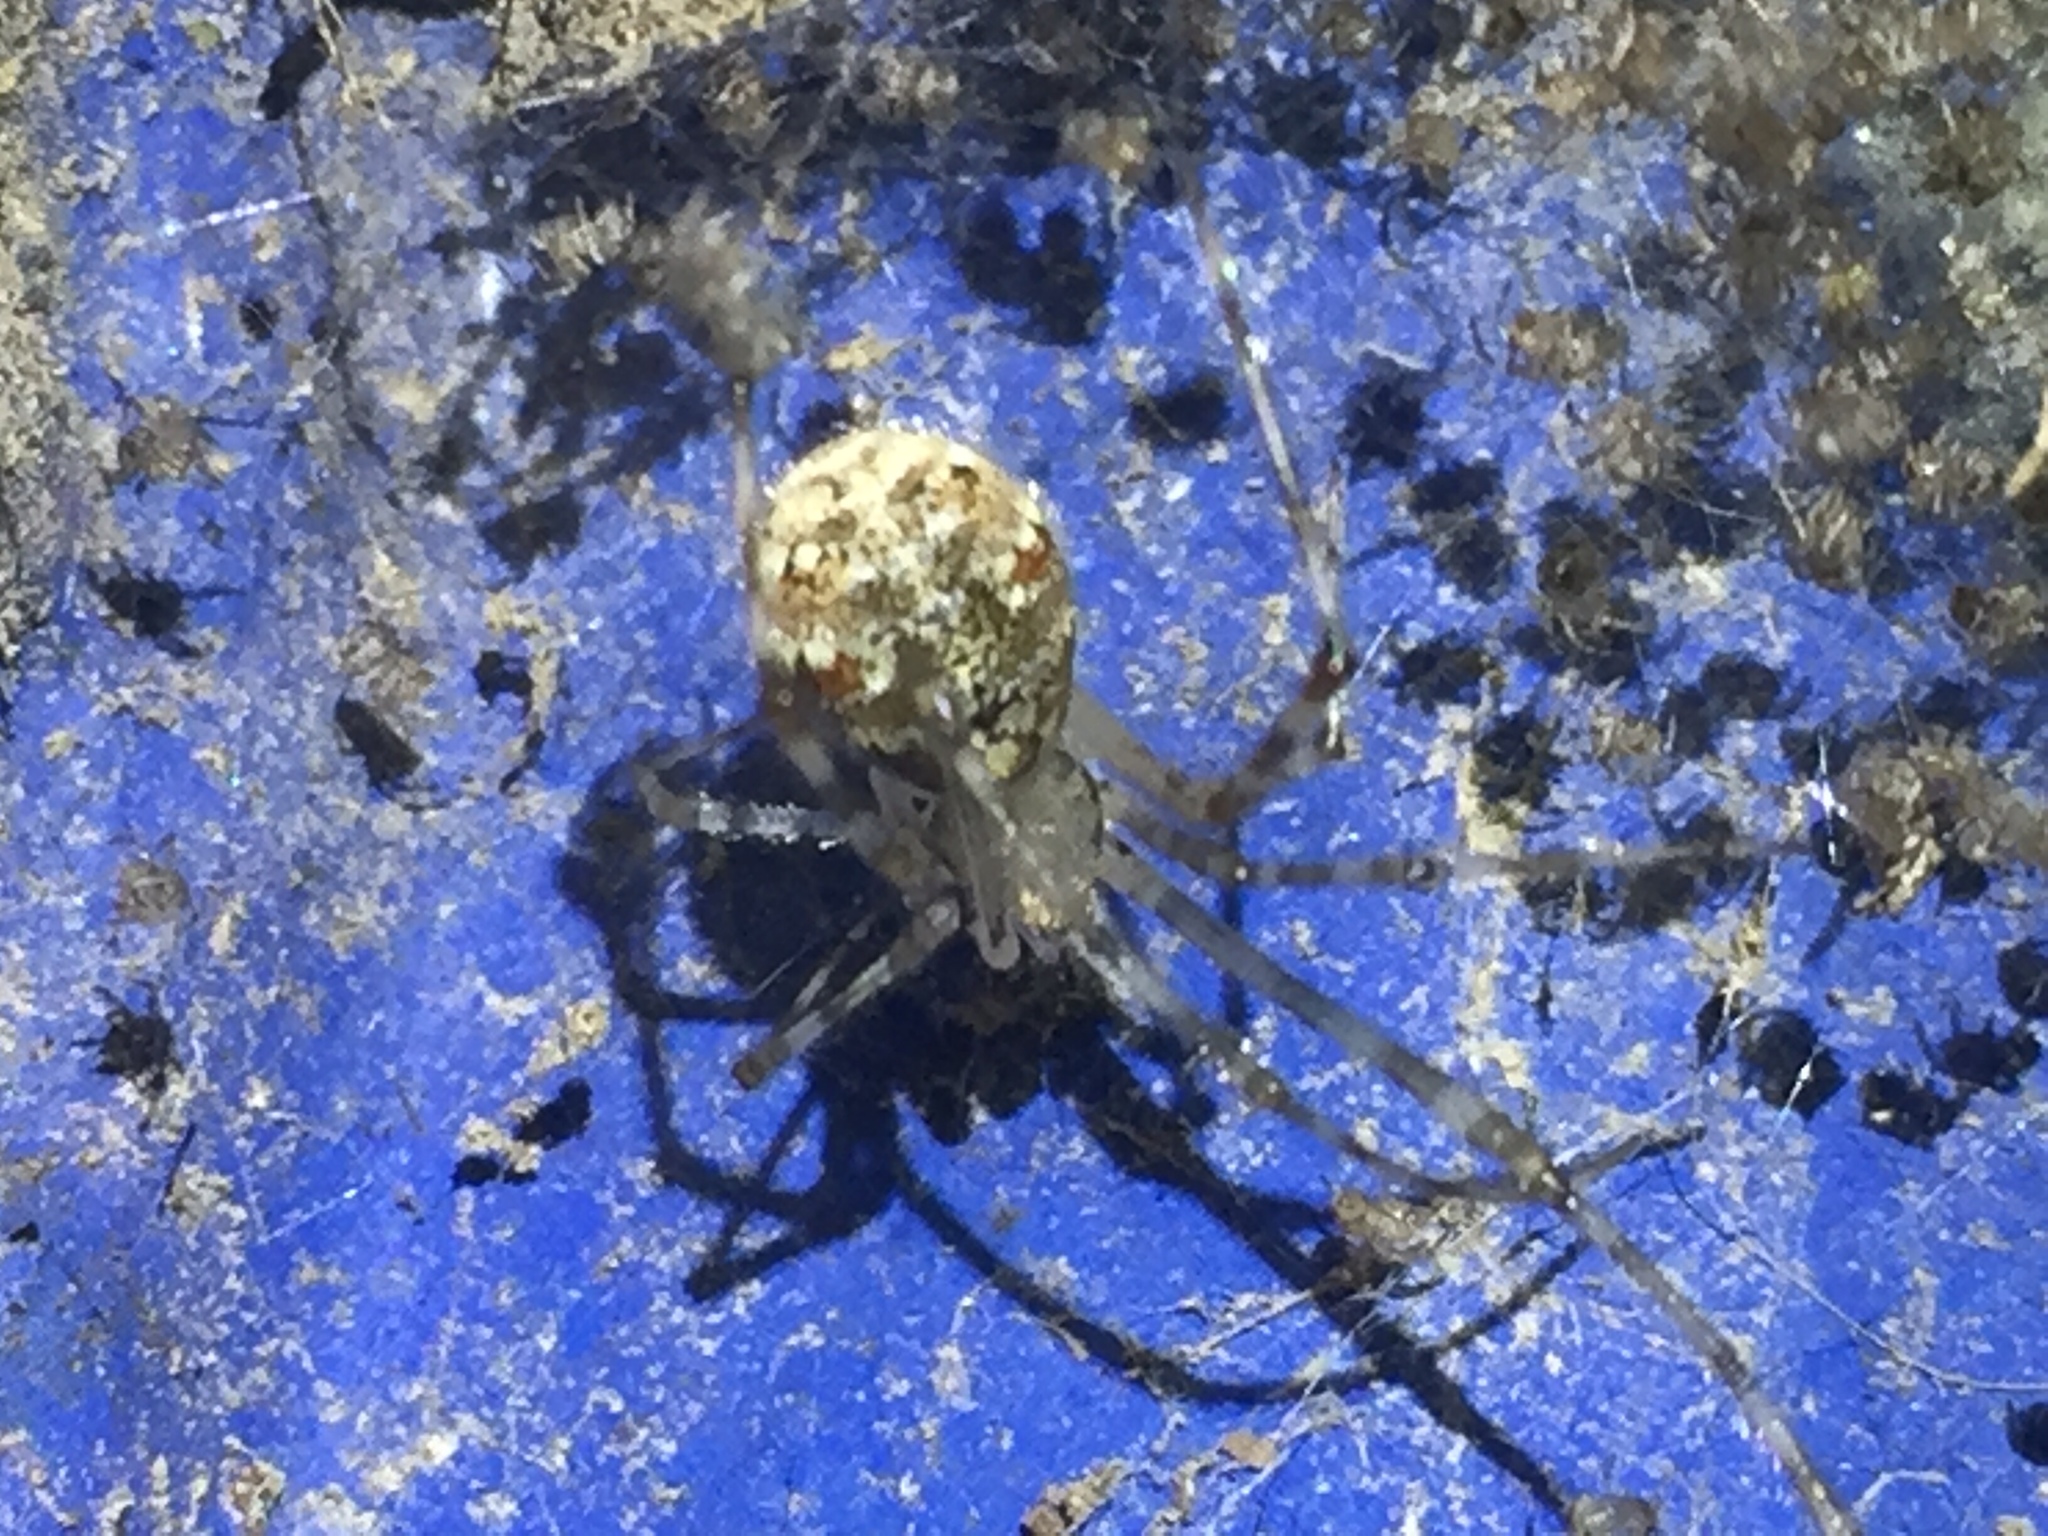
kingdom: Animalia
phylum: Arthropoda
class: Arachnida
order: Araneae
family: Theridiidae
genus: Cryptachaea
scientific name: Cryptachaea gigantipes
